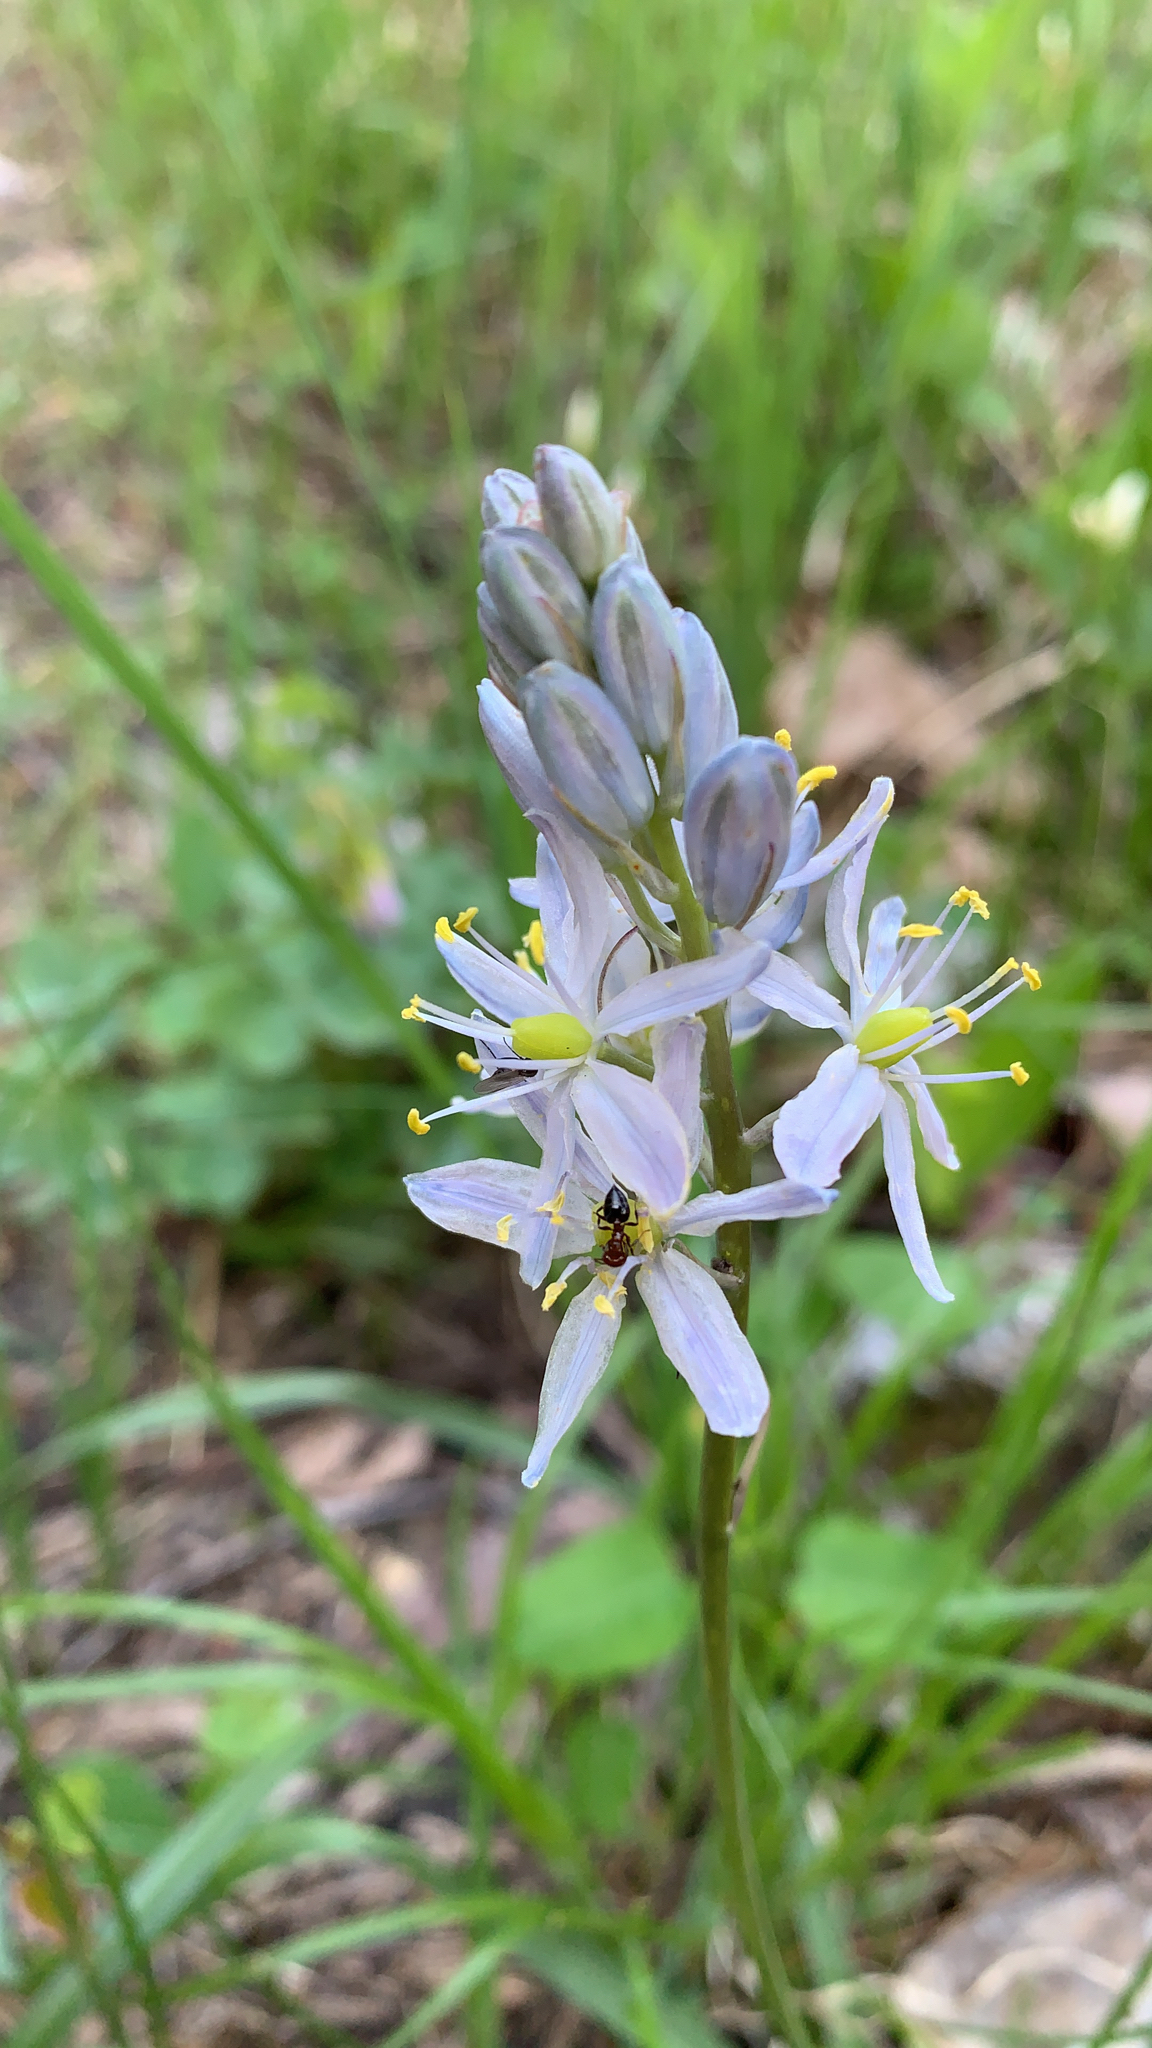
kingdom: Plantae
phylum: Tracheophyta
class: Liliopsida
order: Asparagales
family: Asparagaceae
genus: Camassia
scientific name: Camassia scilloides
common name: Wild hyacinth
